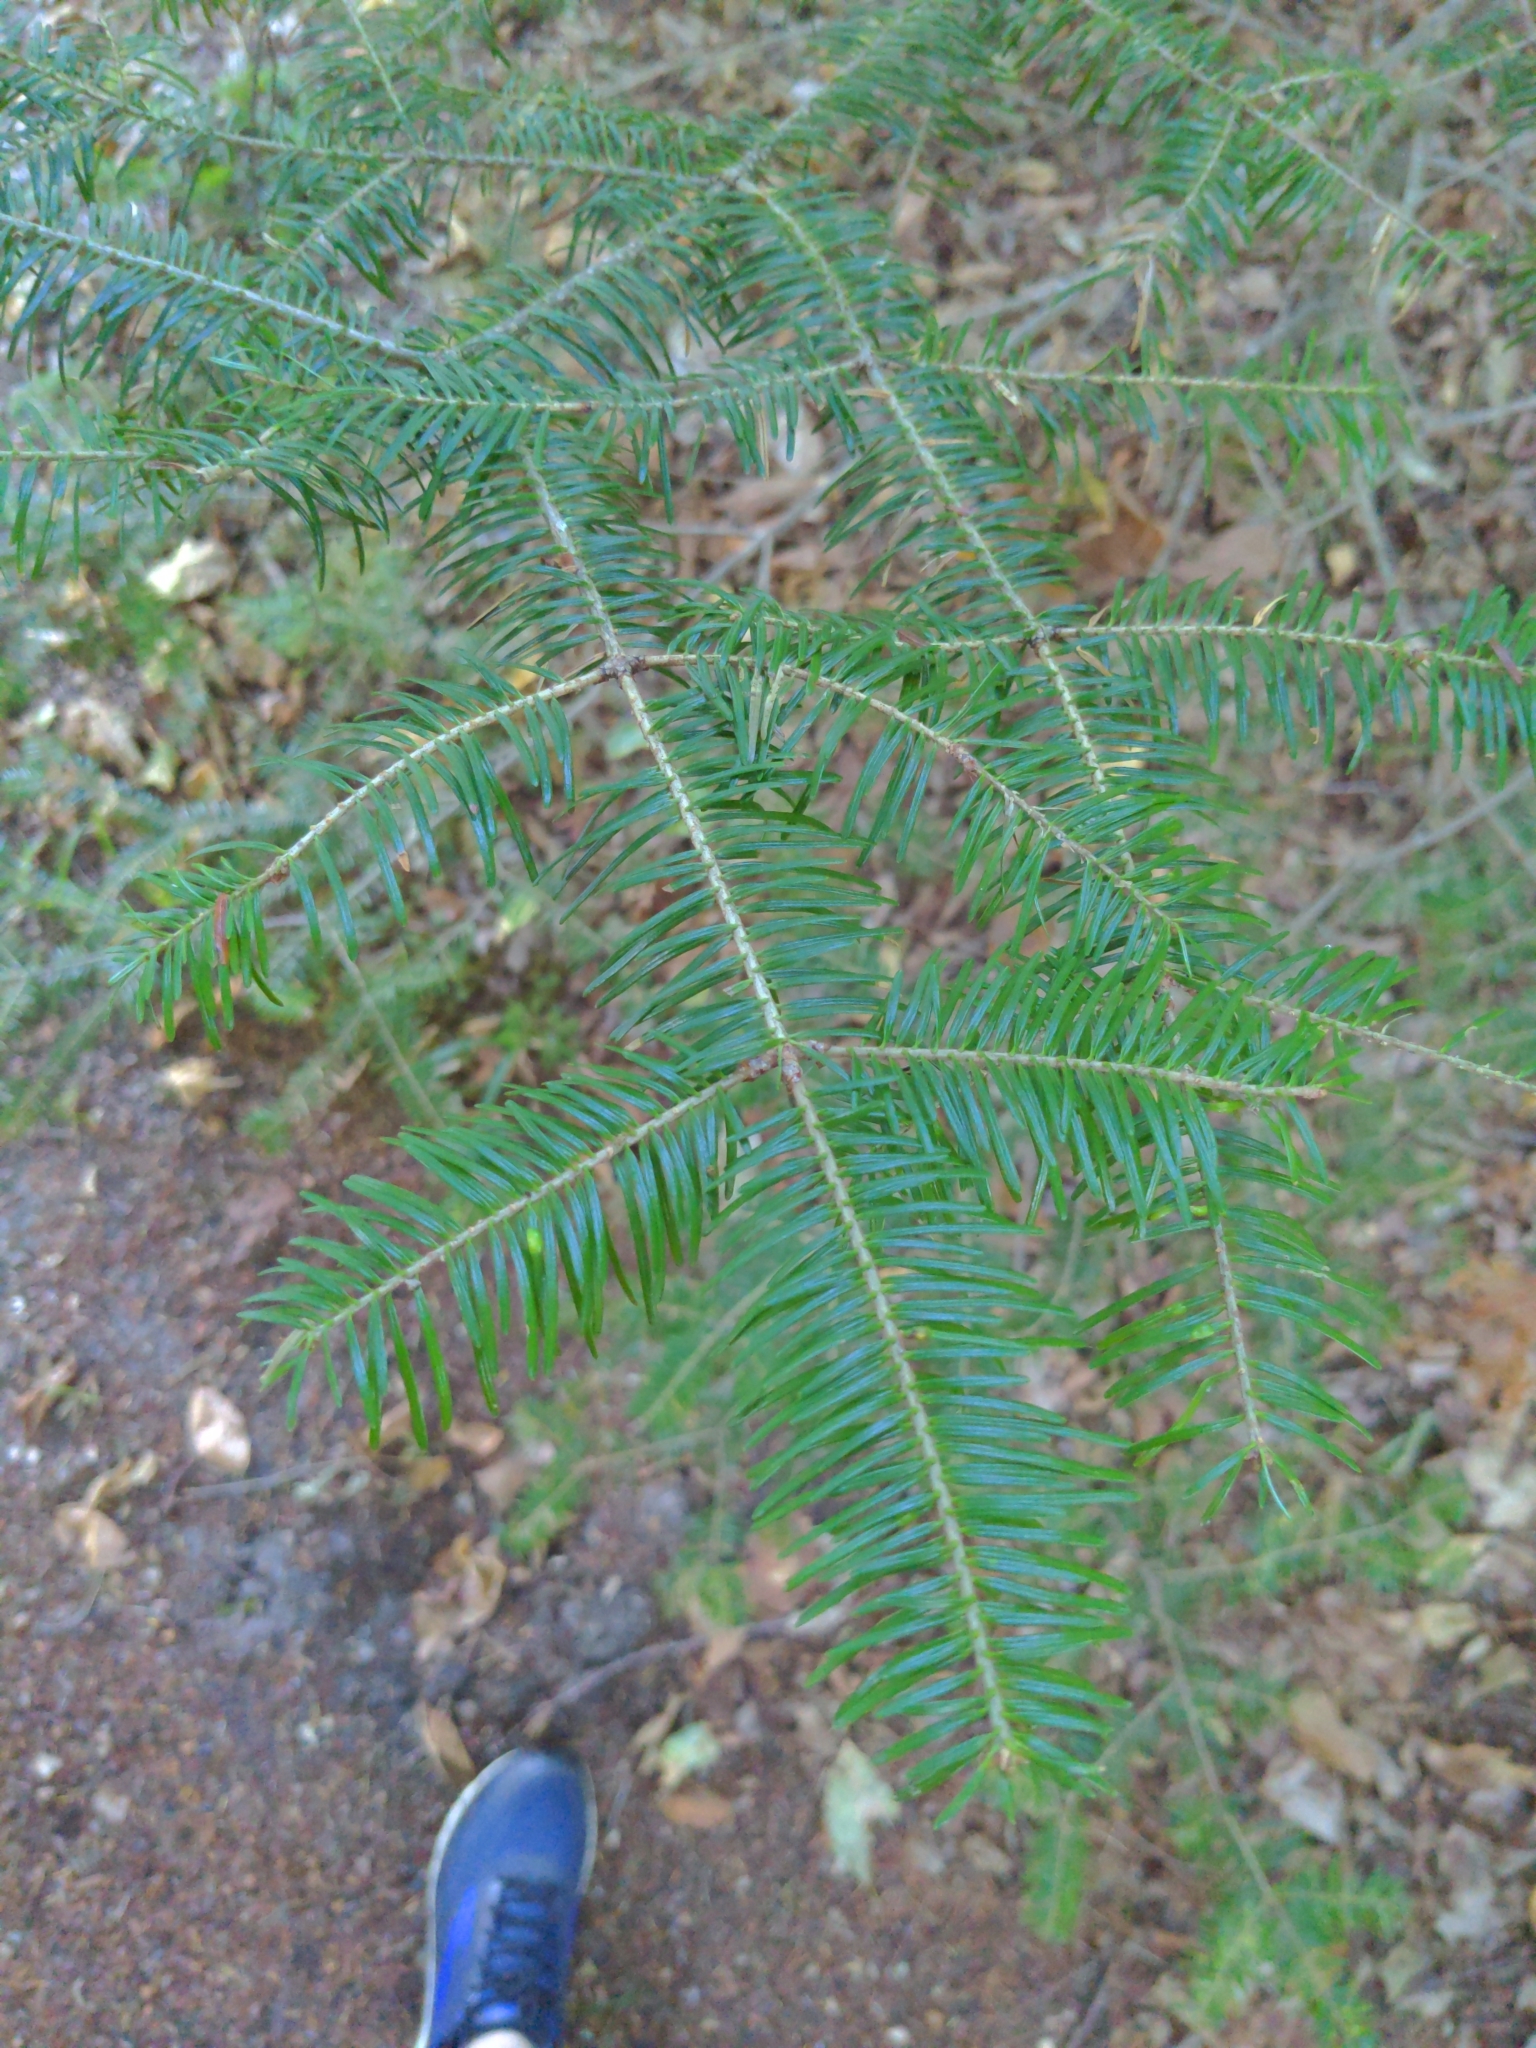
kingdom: Plantae
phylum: Tracheophyta
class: Pinopsida
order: Pinales
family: Pinaceae
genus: Abies
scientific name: Abies balsamea
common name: Balsam fir
